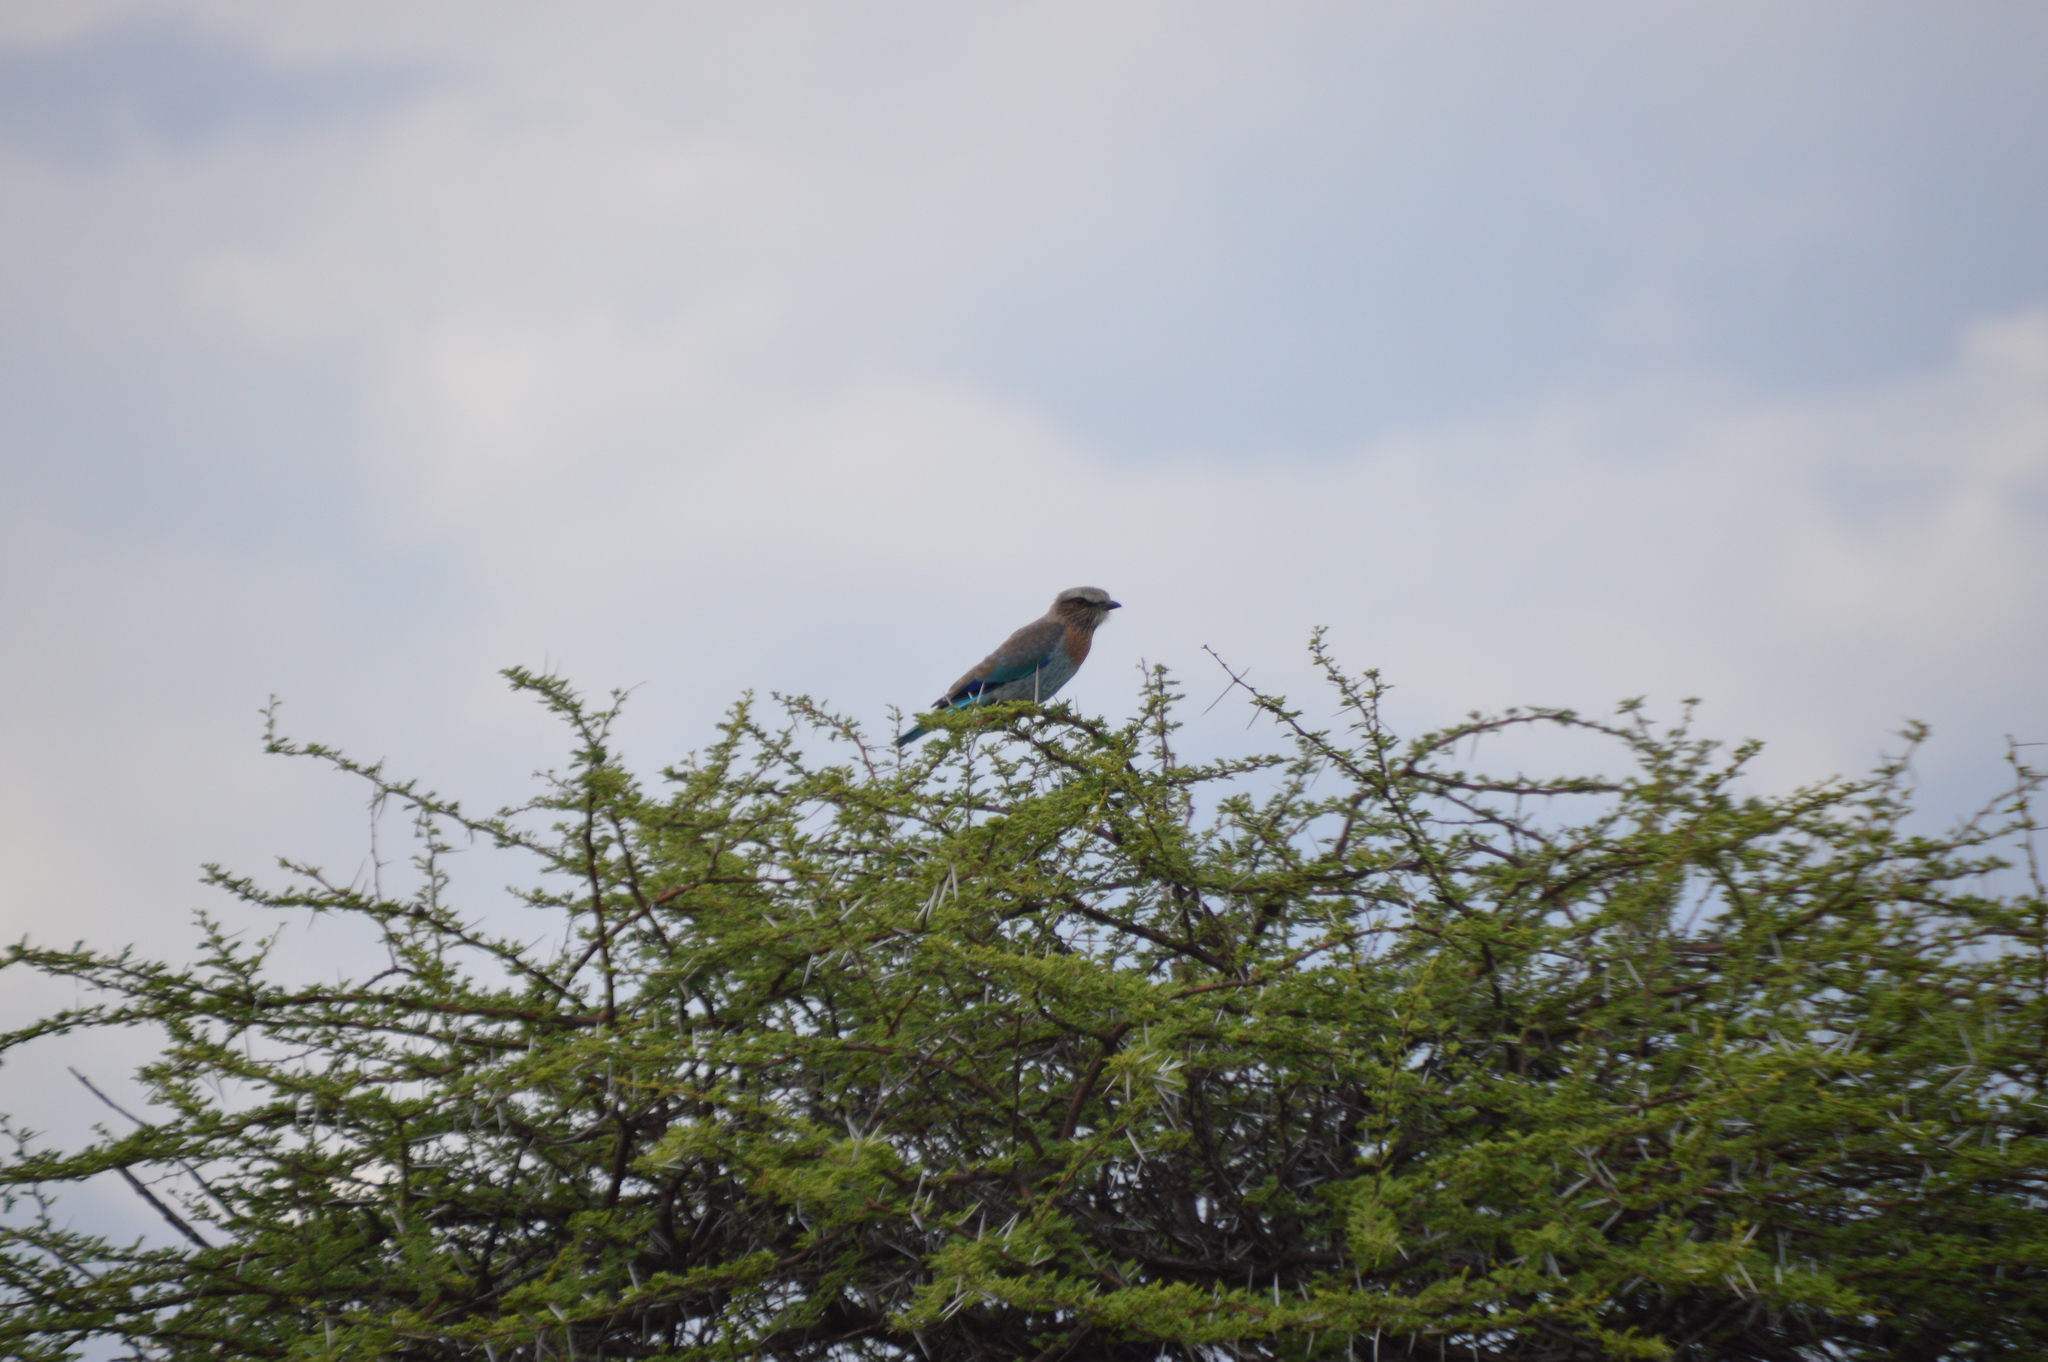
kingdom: Animalia
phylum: Chordata
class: Aves
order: Coraciiformes
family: Coraciidae
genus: Coracias
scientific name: Coracias caudatus
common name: Lilac-breasted roller
